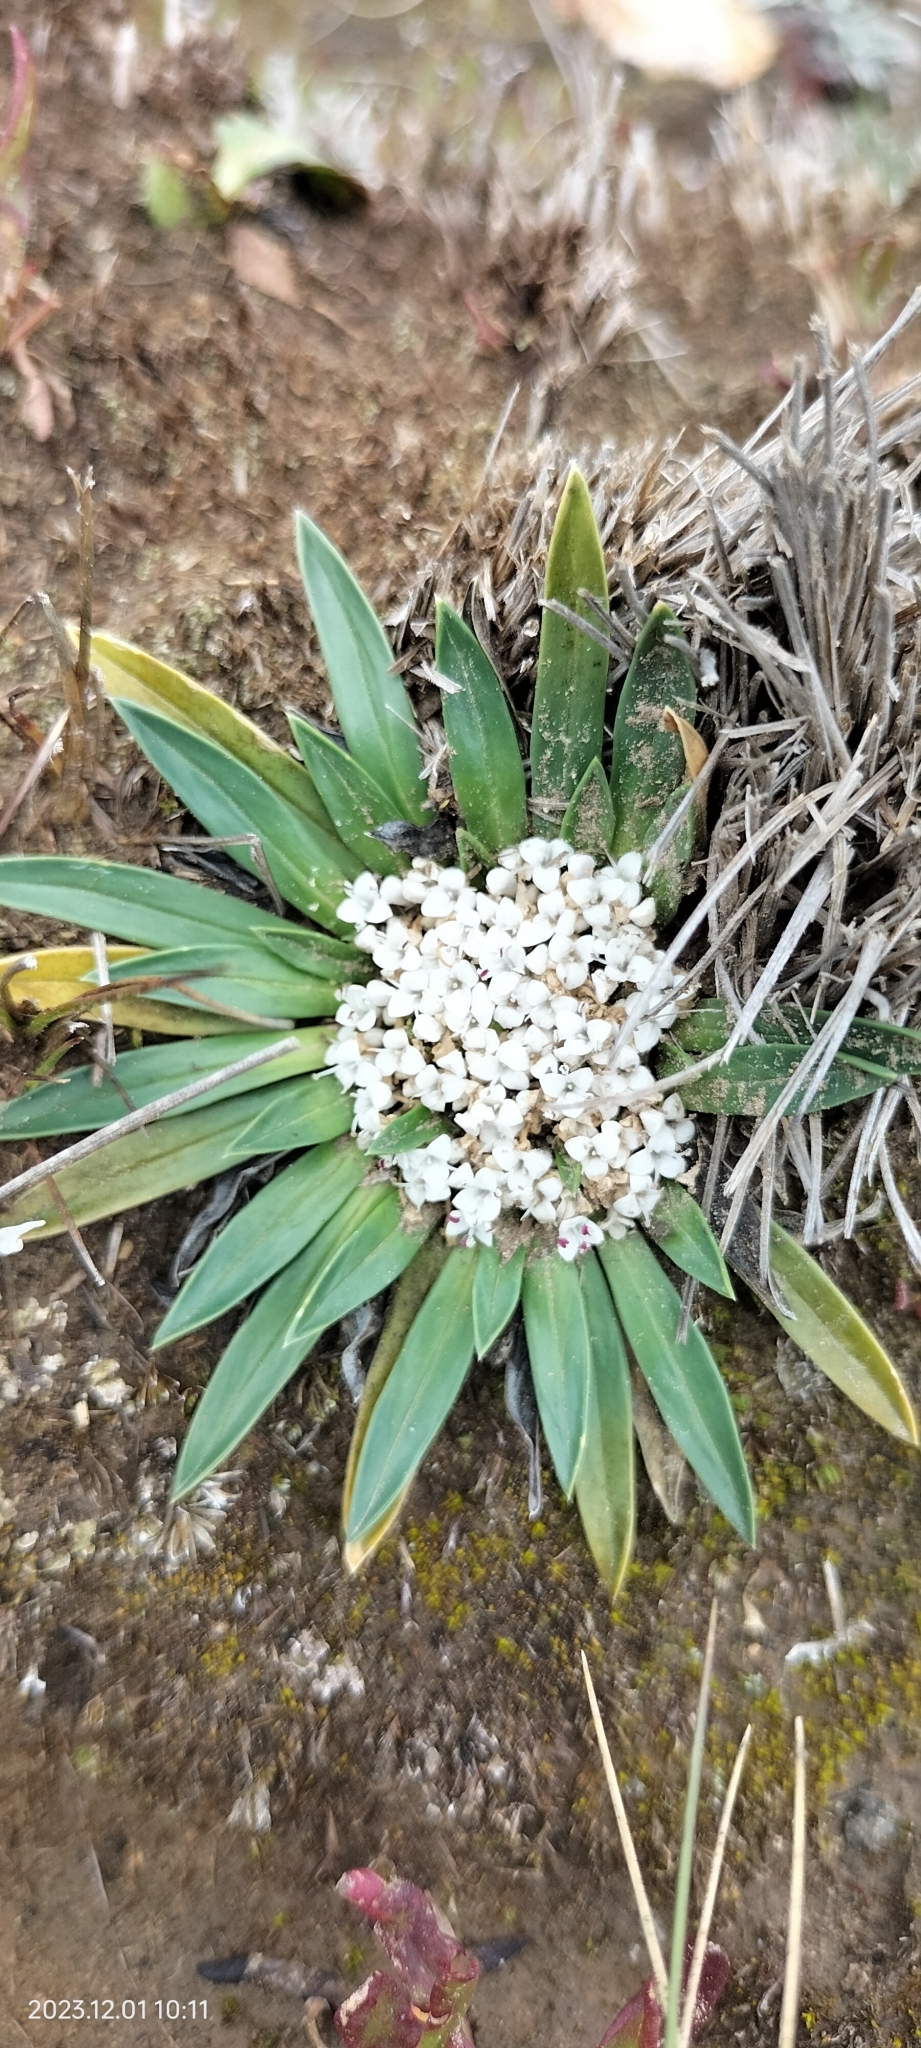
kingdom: Plantae
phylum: Tracheophyta
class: Magnoliopsida
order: Dipsacales
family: Caprifoliaceae
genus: Valeriana
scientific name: Valeriana rigida
